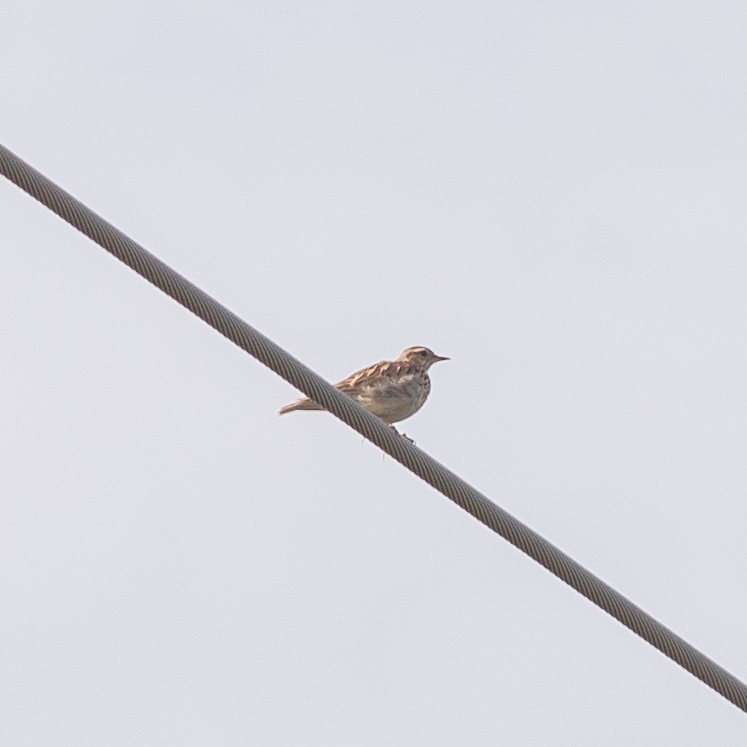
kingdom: Animalia
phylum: Chordata
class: Aves
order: Passeriformes
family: Alaudidae
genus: Lullula
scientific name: Lullula arborea
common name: Woodlark
